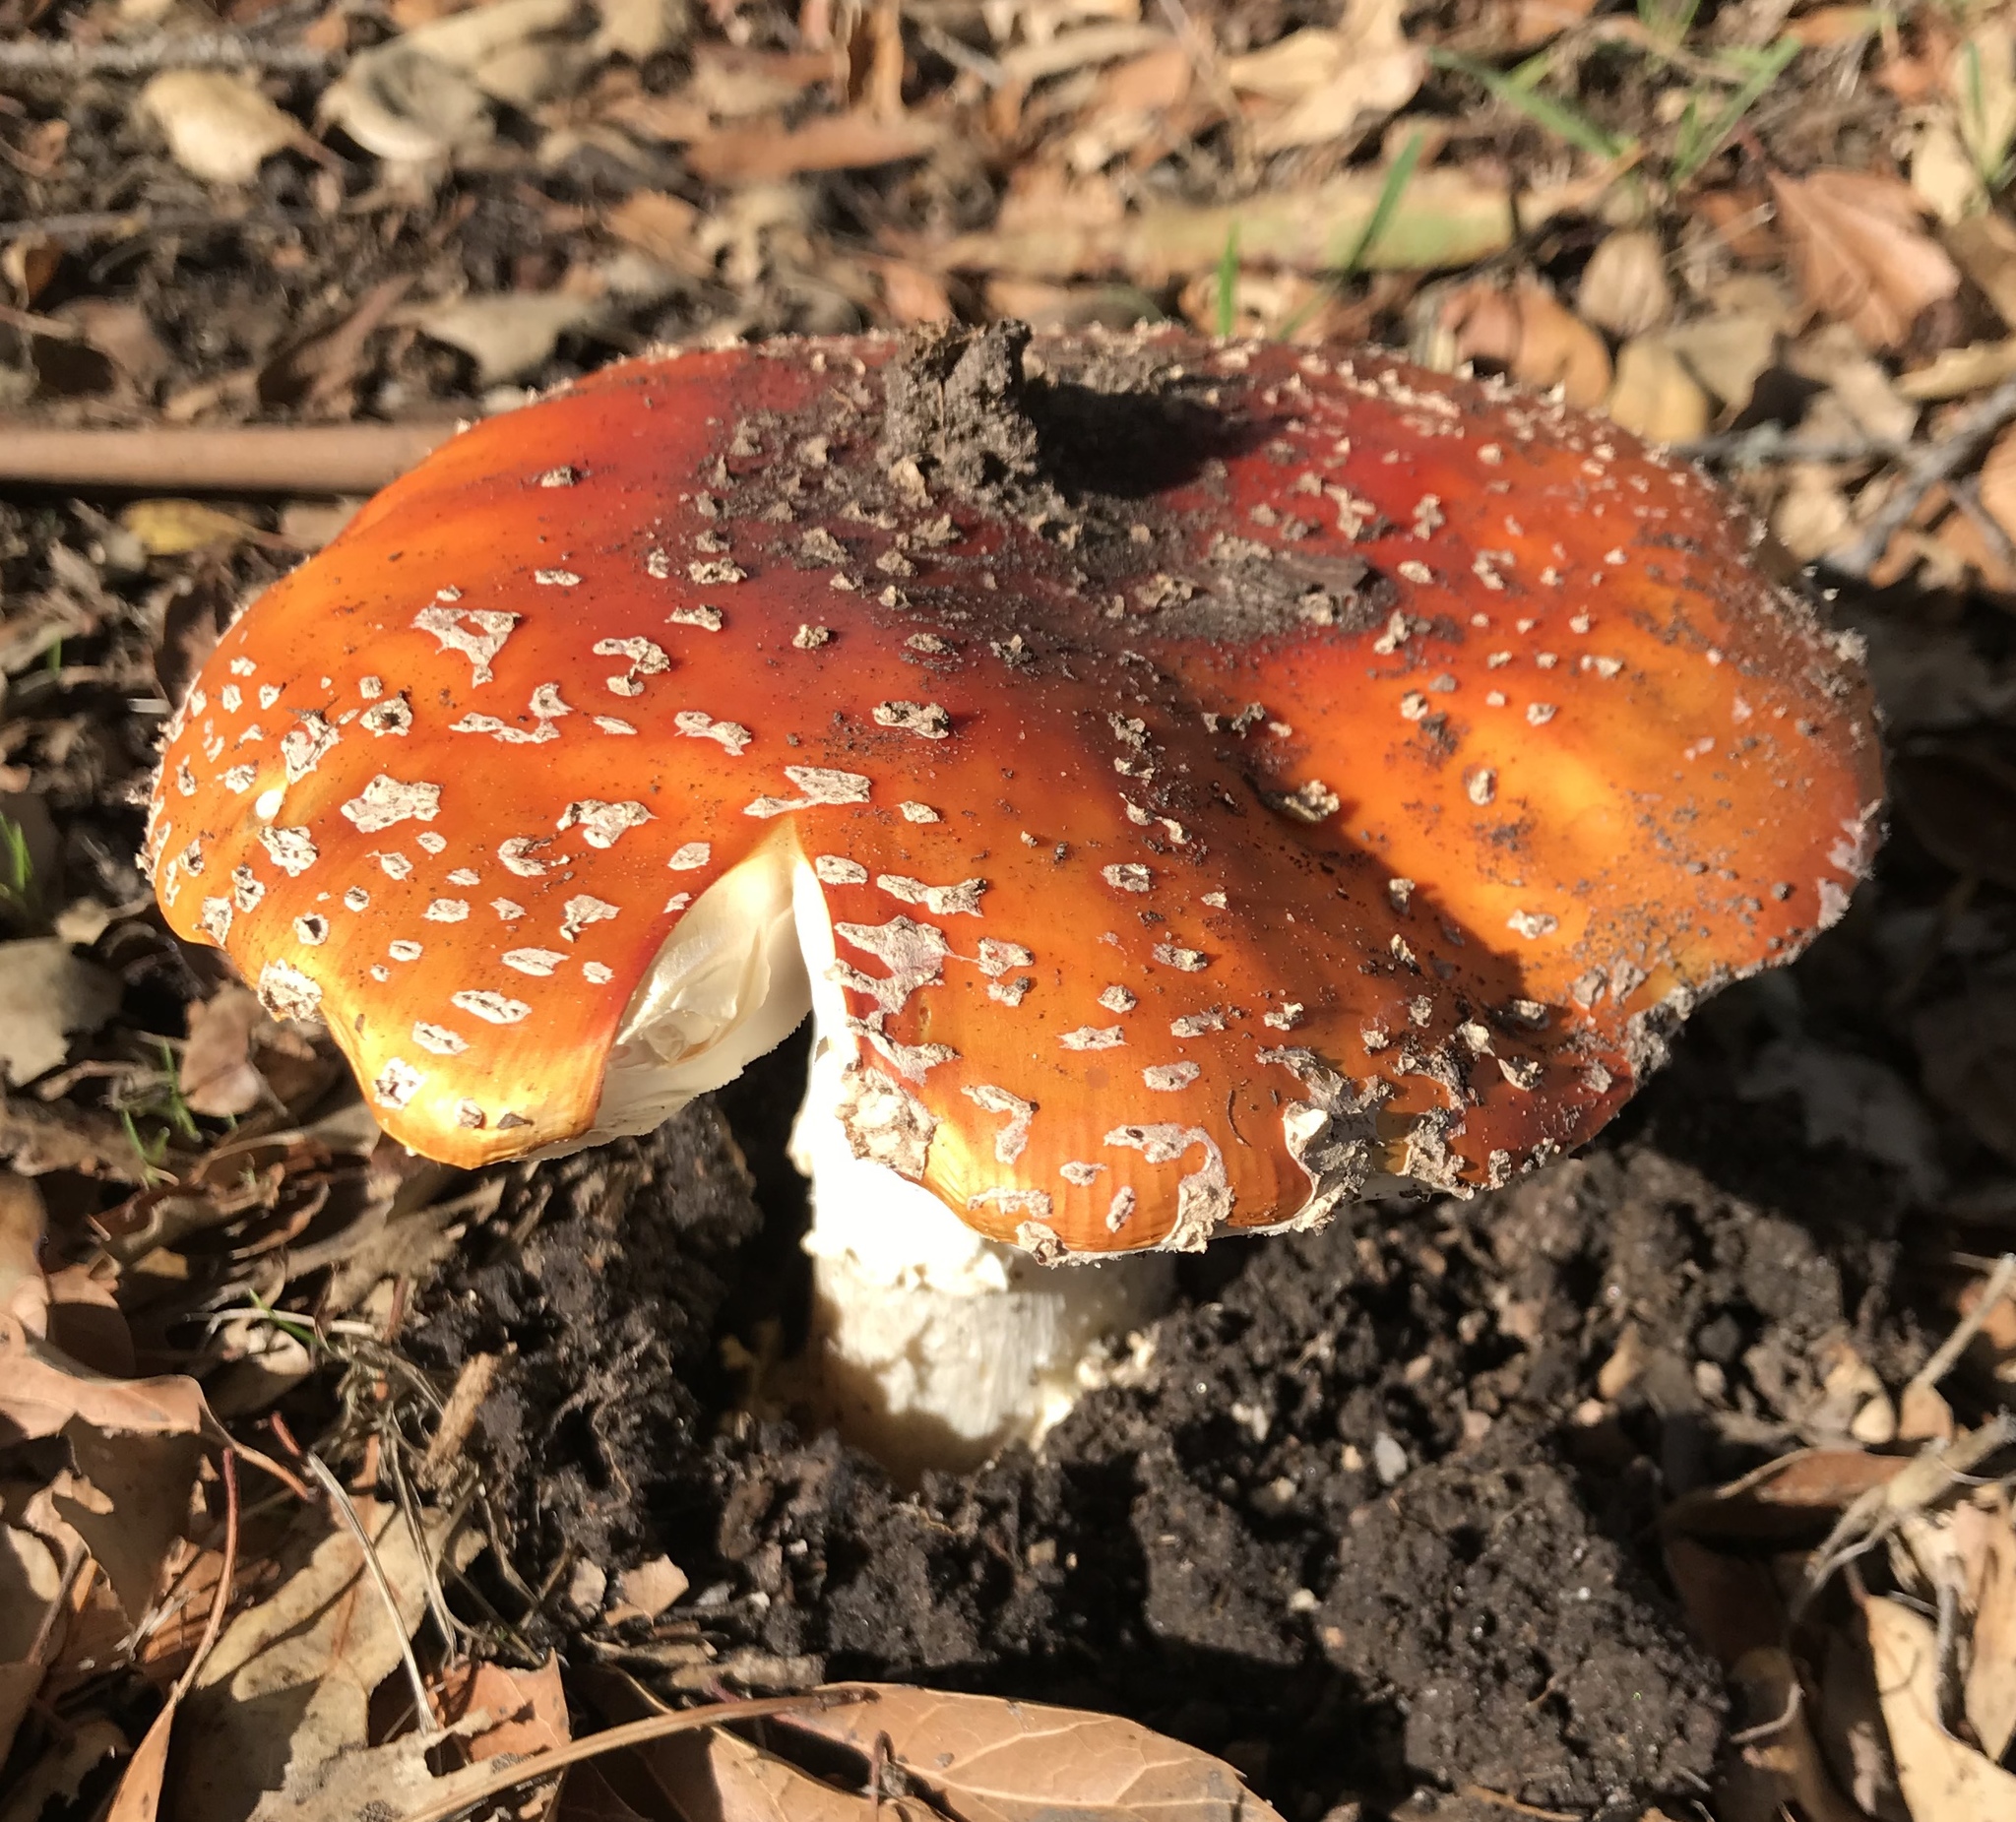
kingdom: Fungi
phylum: Basidiomycota
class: Agaricomycetes
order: Agaricales
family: Amanitaceae
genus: Amanita
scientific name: Amanita muscaria
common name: Fly agaric
